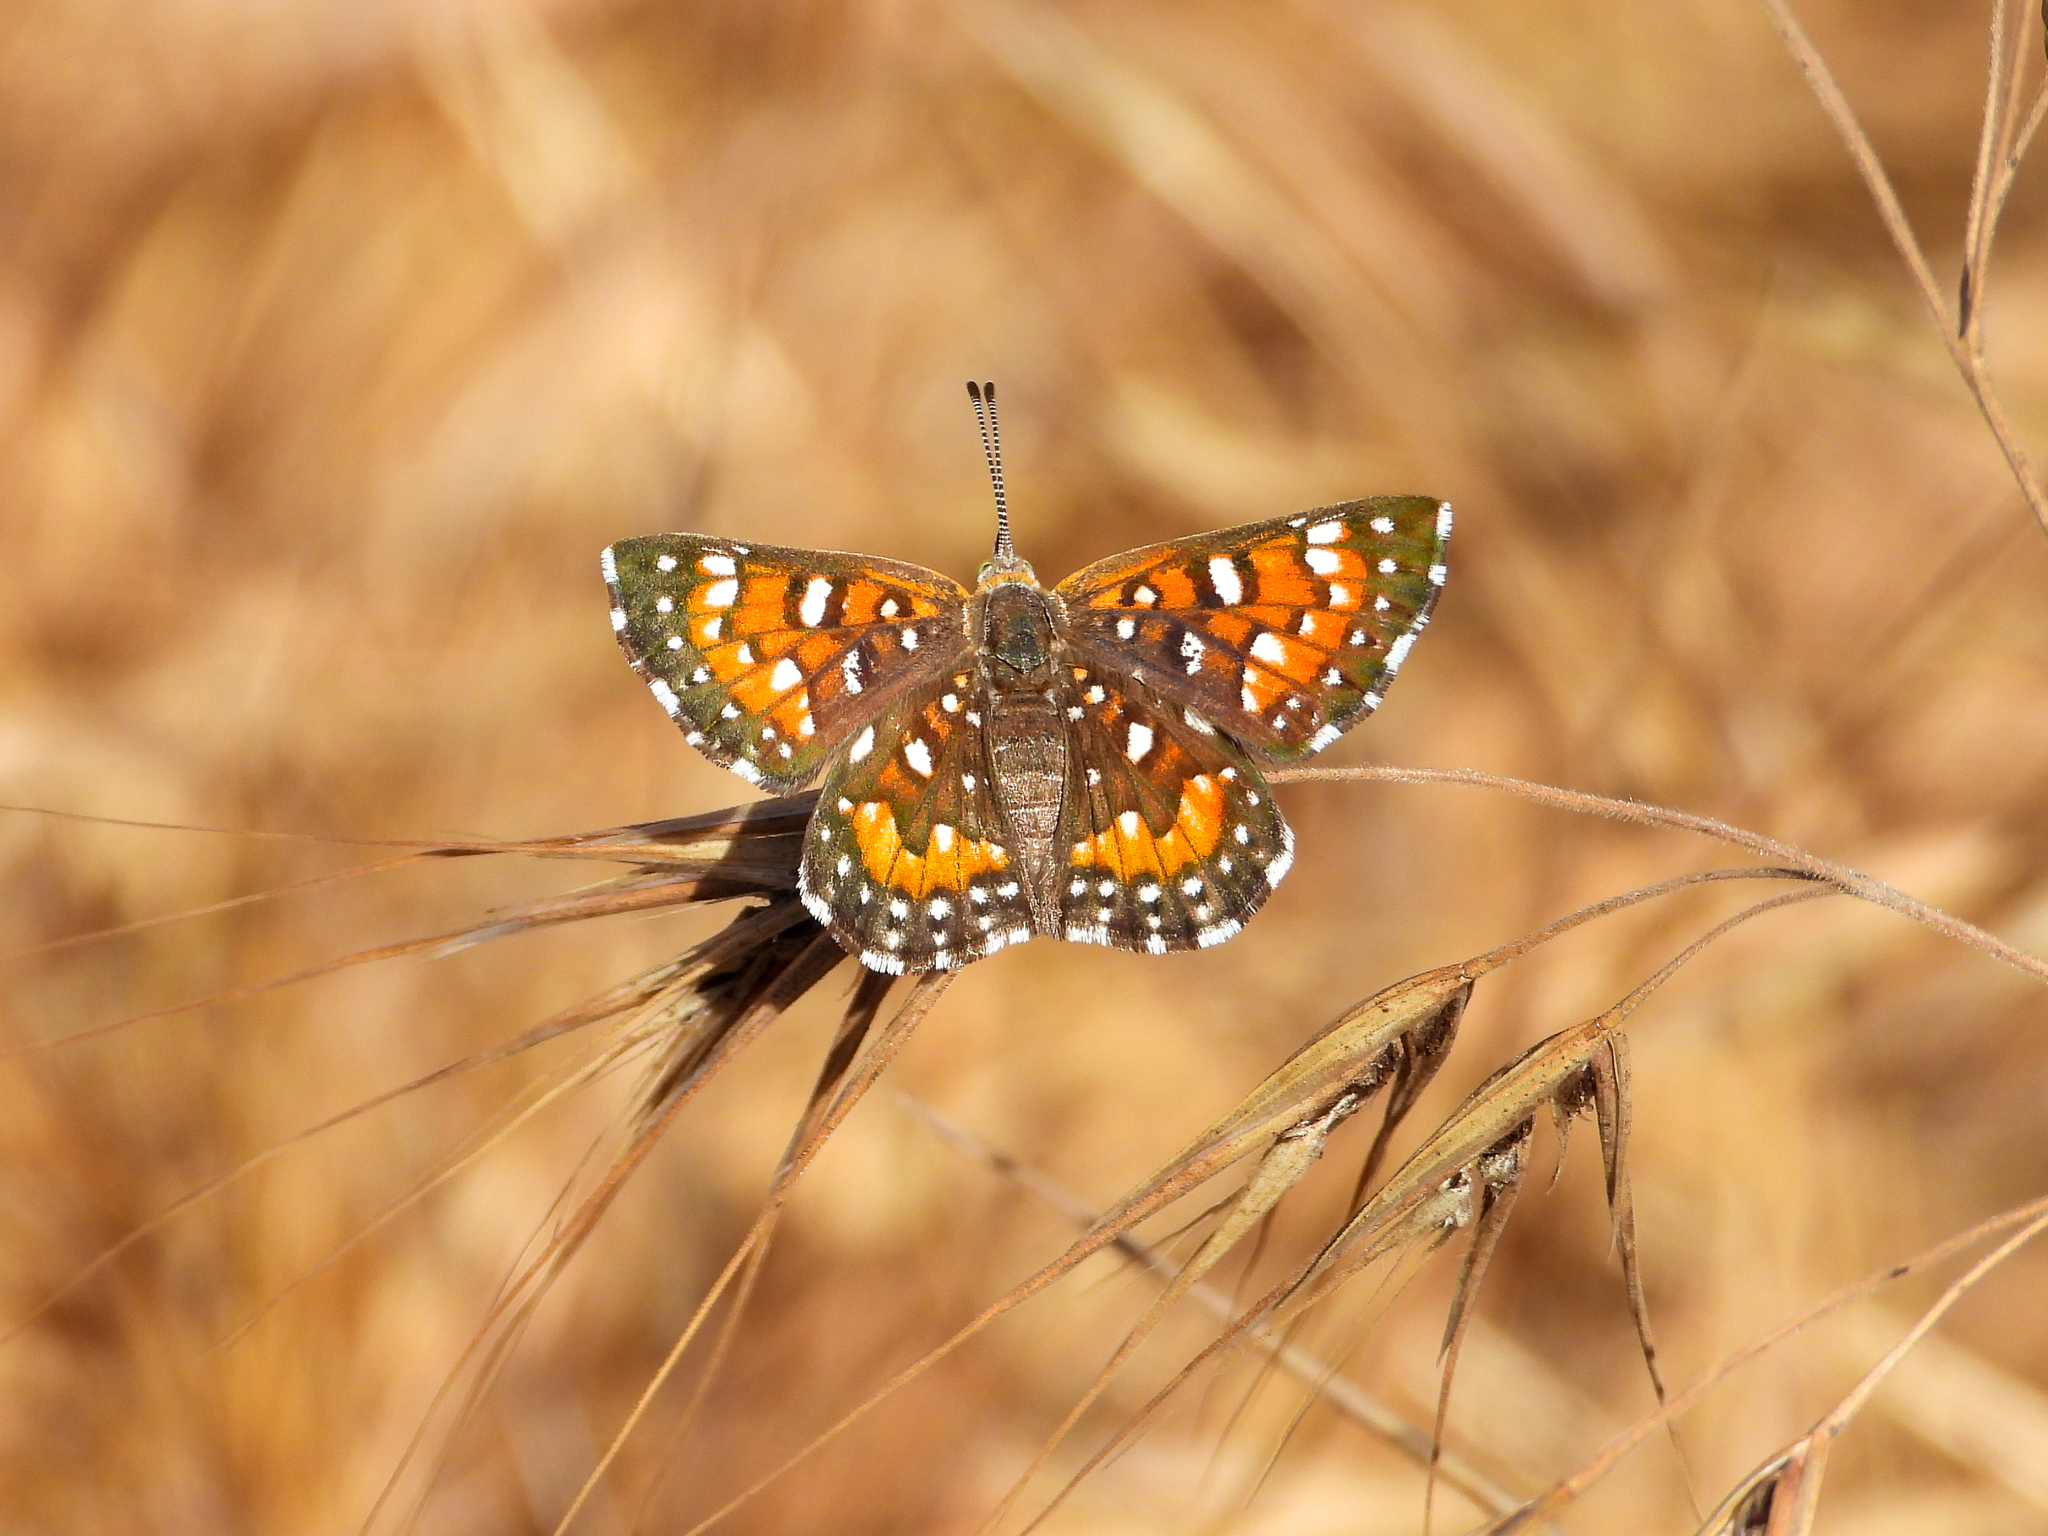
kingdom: Animalia
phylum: Arthropoda
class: Insecta
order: Lepidoptera
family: Riodinidae
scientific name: Riodinidae
